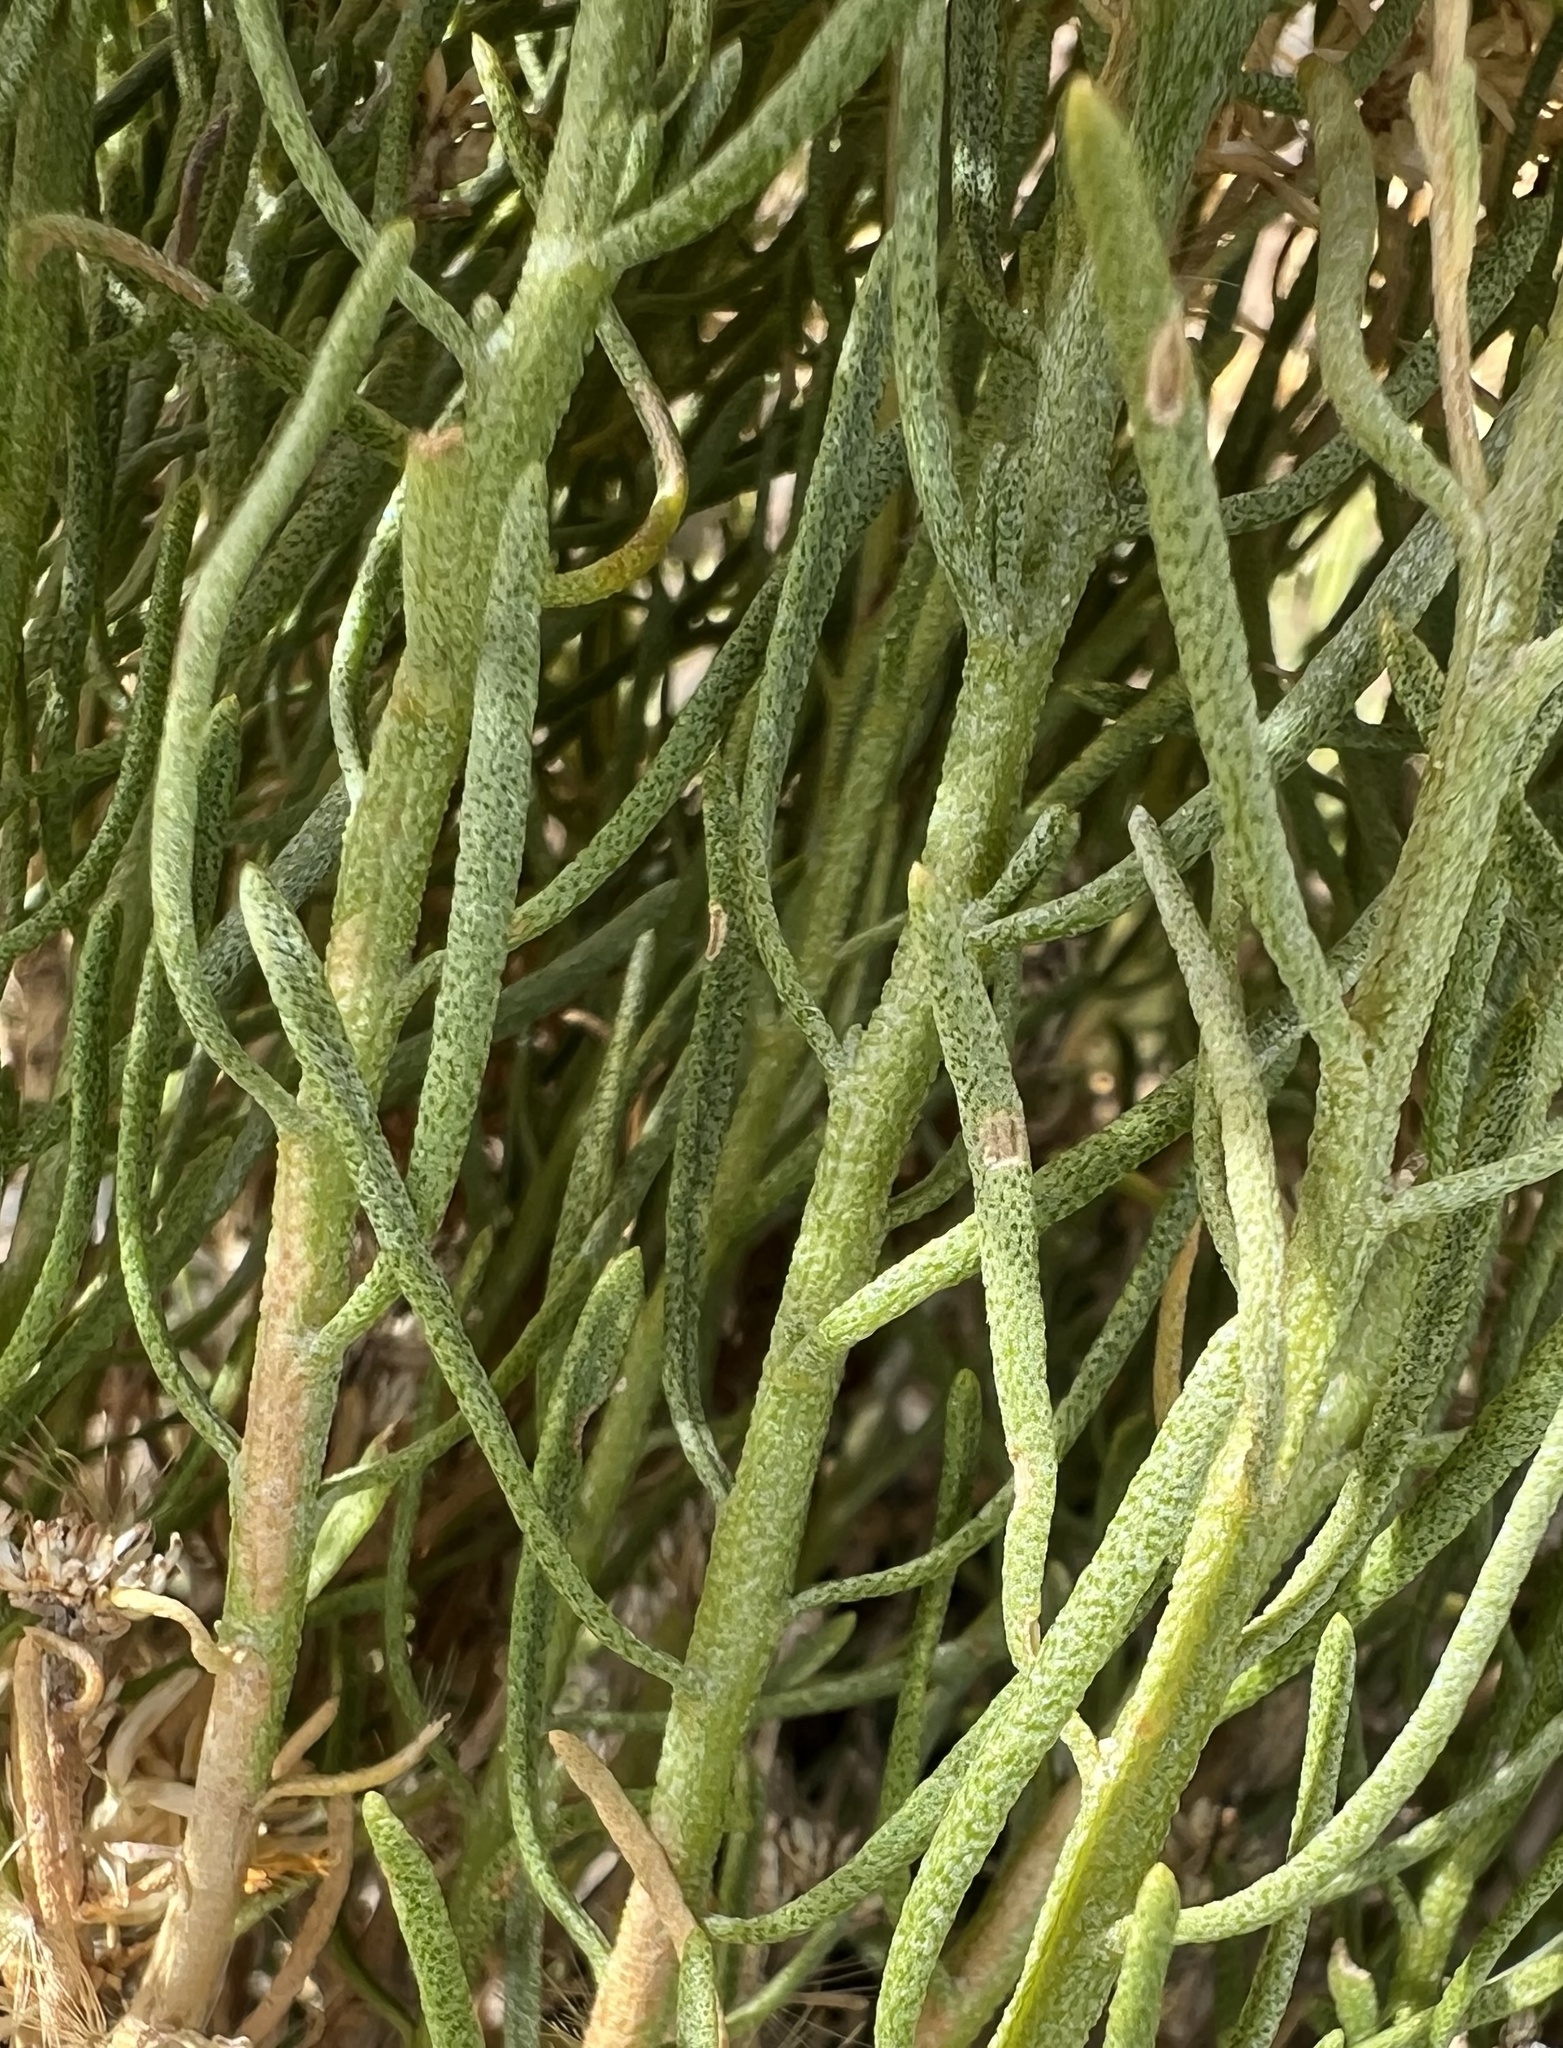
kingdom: Plantae
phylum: Tracheophyta
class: Magnoliopsida
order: Asterales
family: Asteraceae
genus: Ericameria
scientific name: Ericameria teretifolia
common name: Round-leaf rabbitbrush
